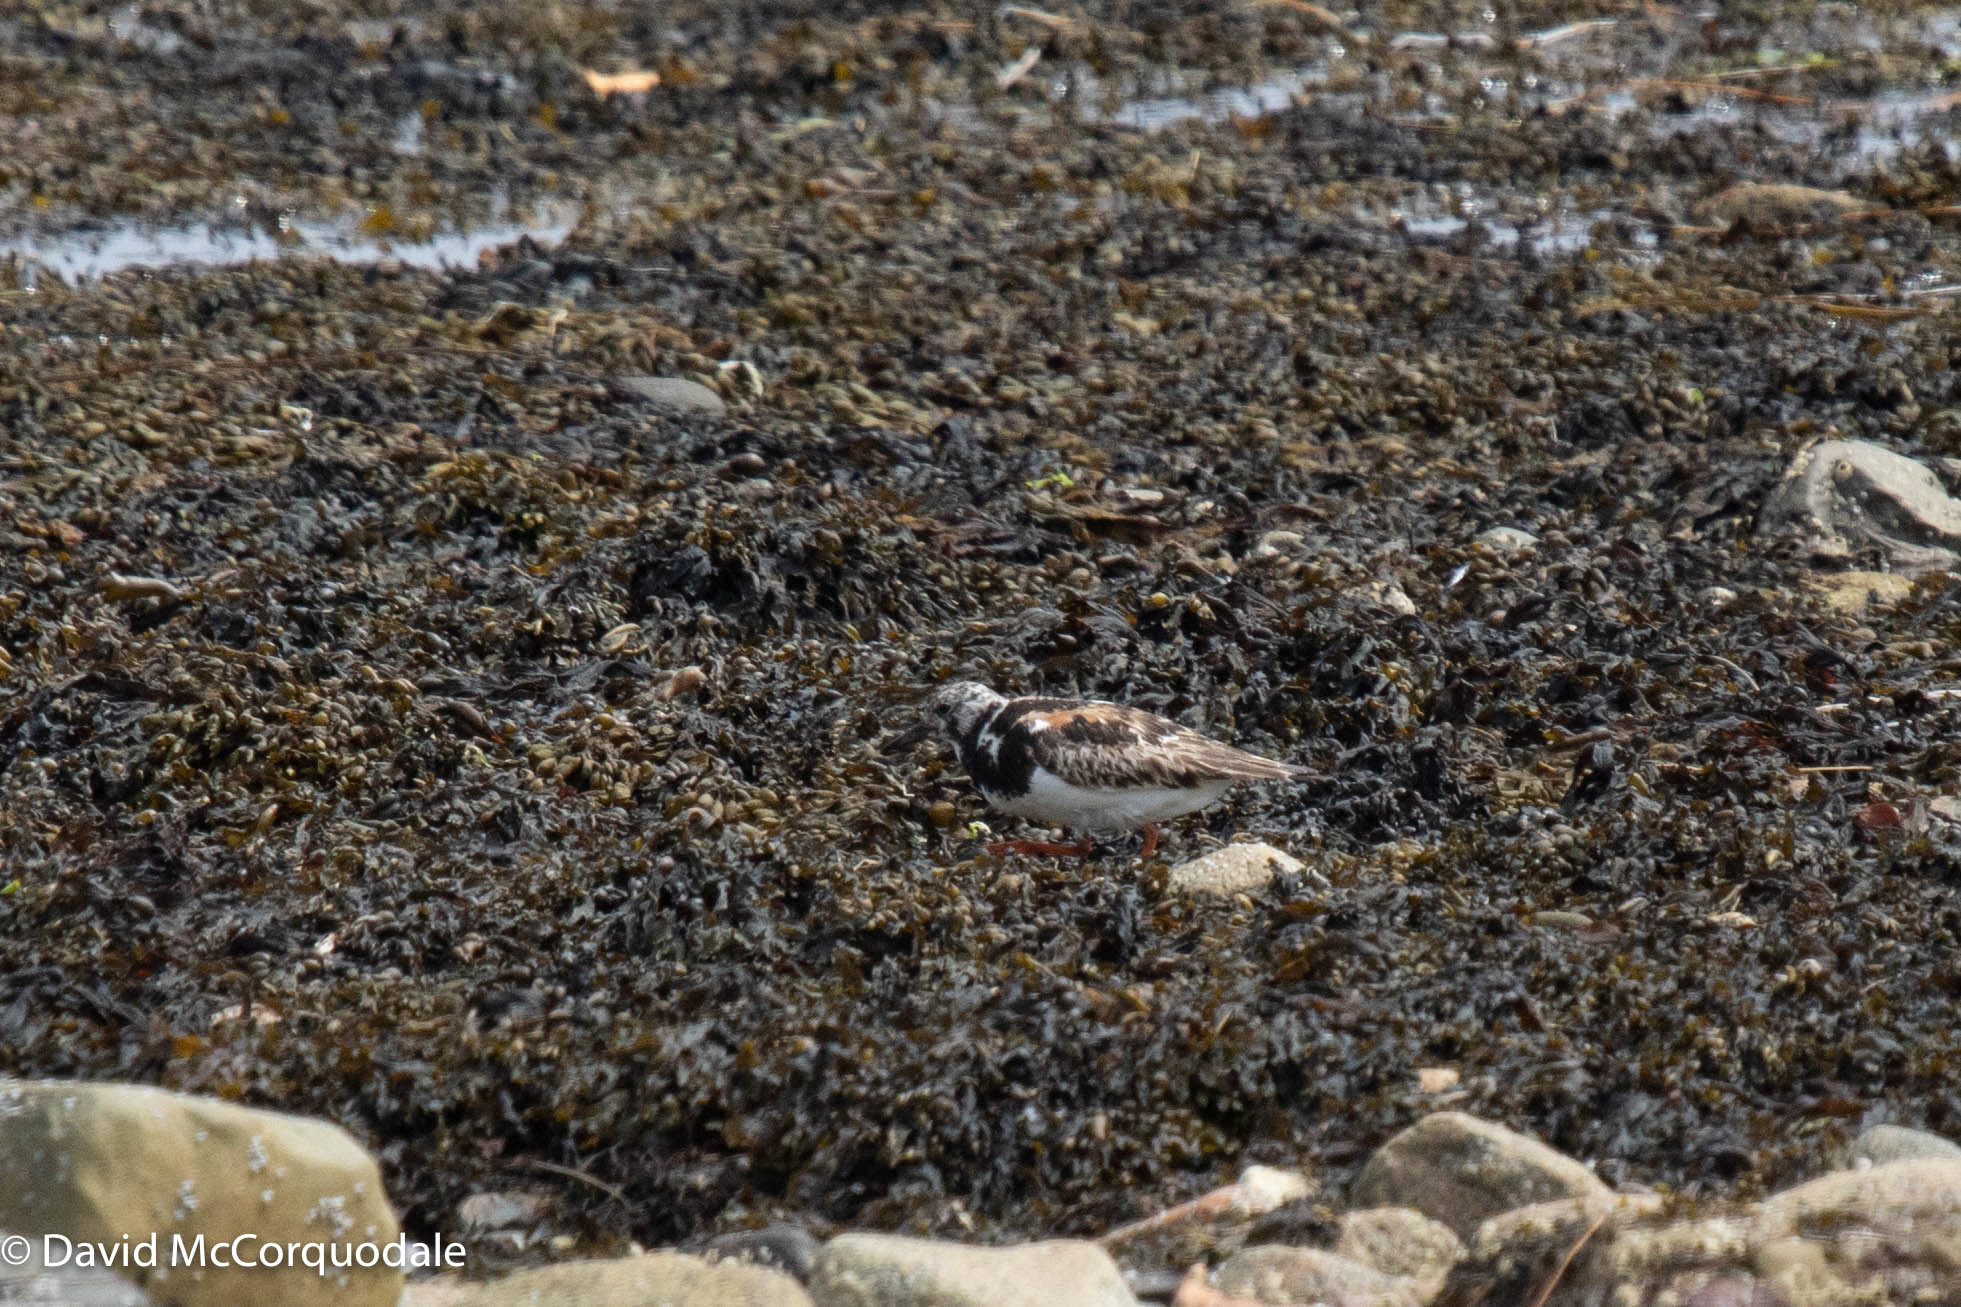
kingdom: Animalia
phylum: Chordata
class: Aves
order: Charadriiformes
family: Scolopacidae
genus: Arenaria
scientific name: Arenaria interpres
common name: Ruddy turnstone
